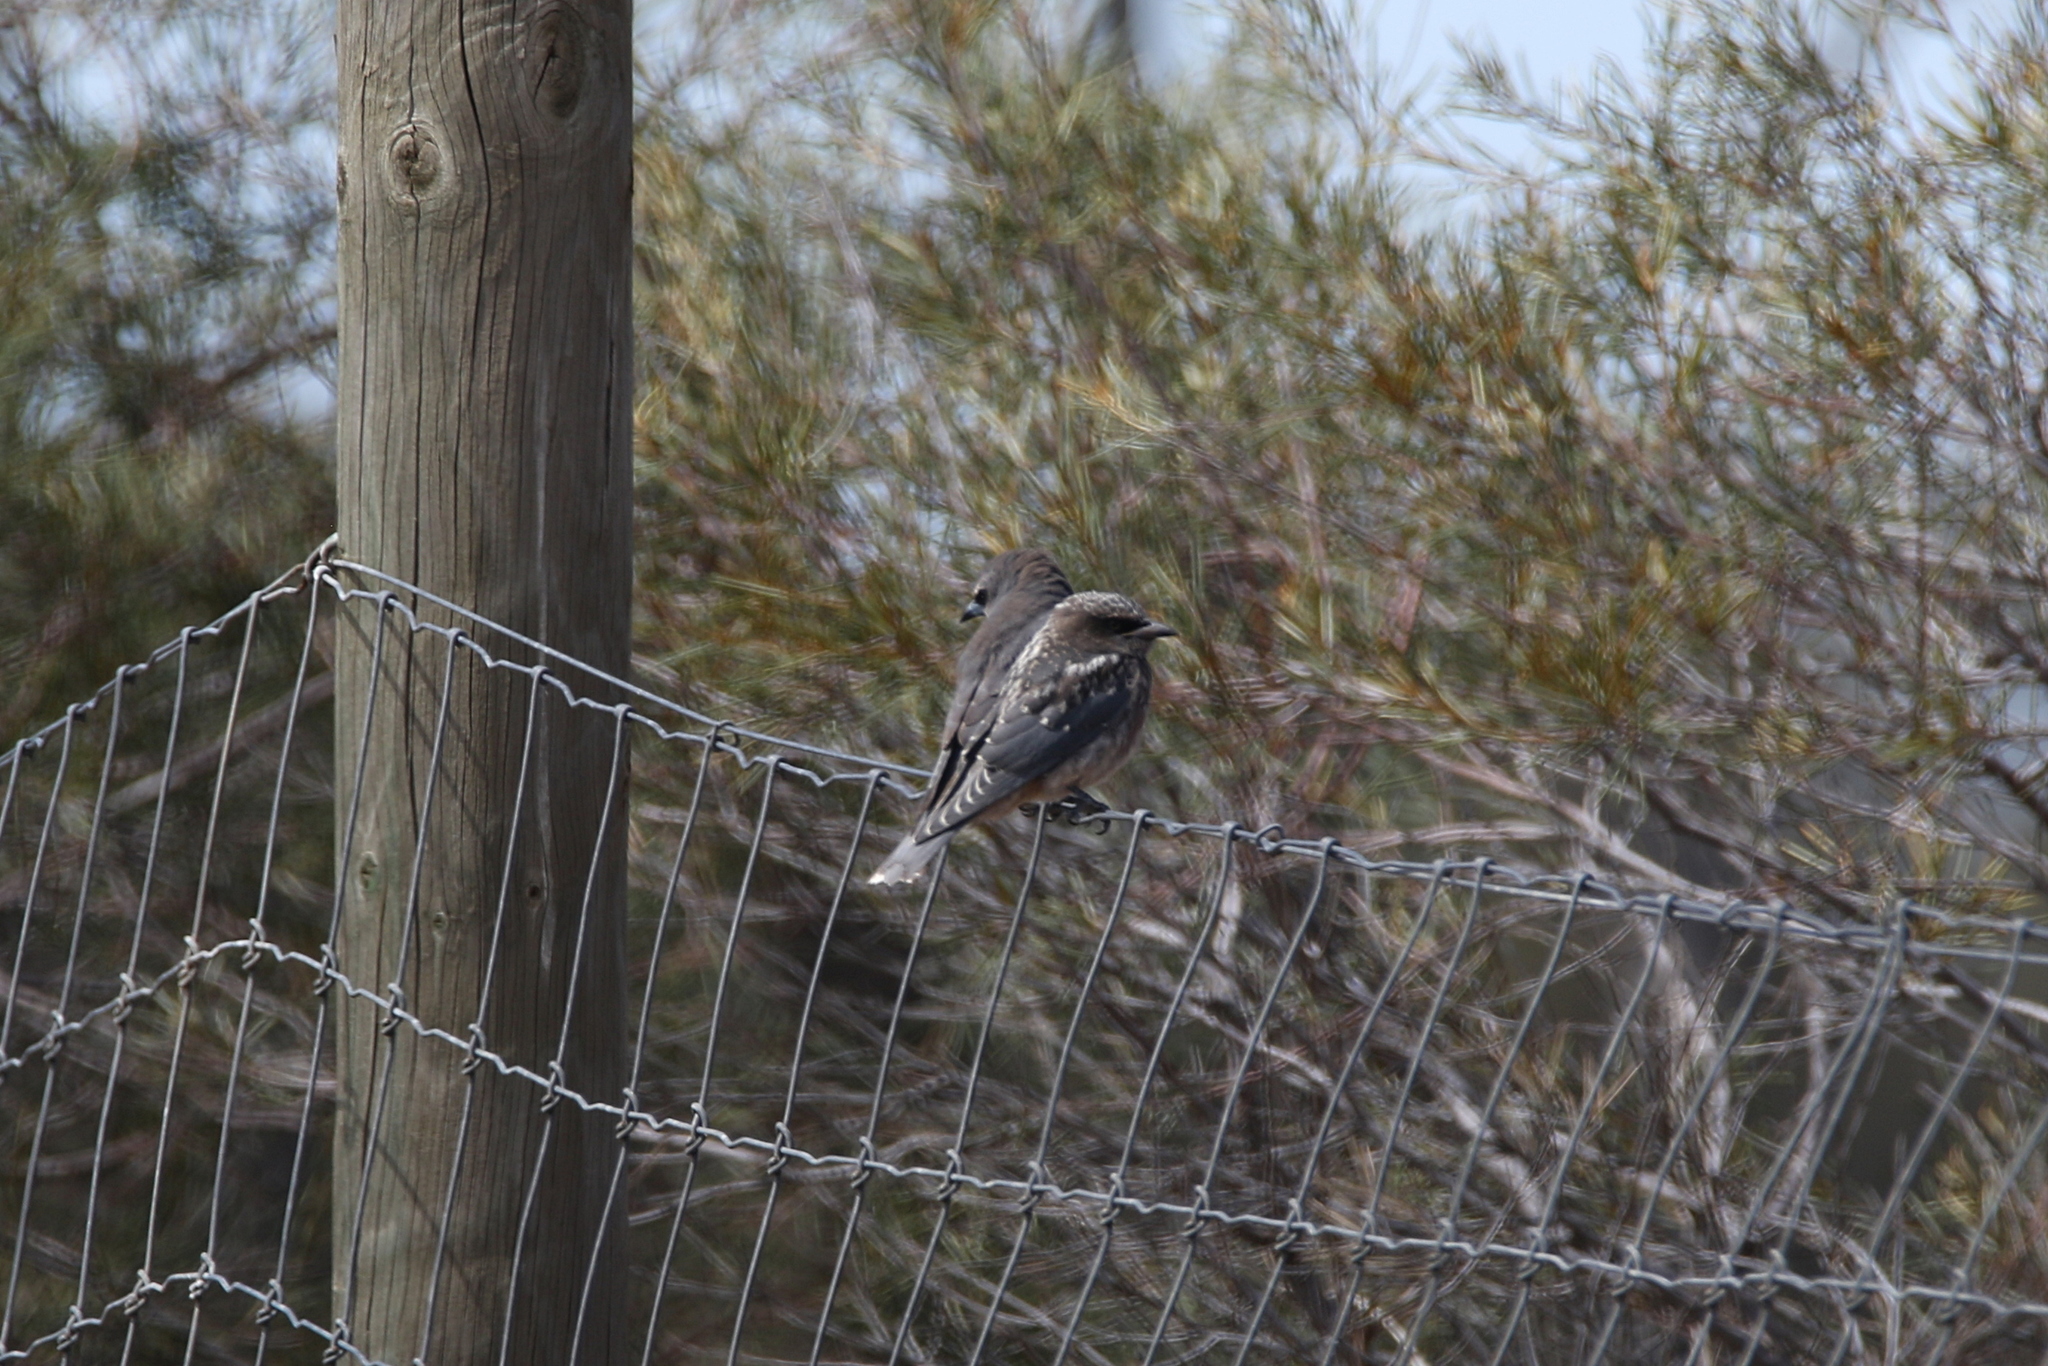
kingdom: Animalia
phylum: Chordata
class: Aves
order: Passeriformes
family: Artamidae
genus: Artamus
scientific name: Artamus superciliosus
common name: White-browed woodswallow
